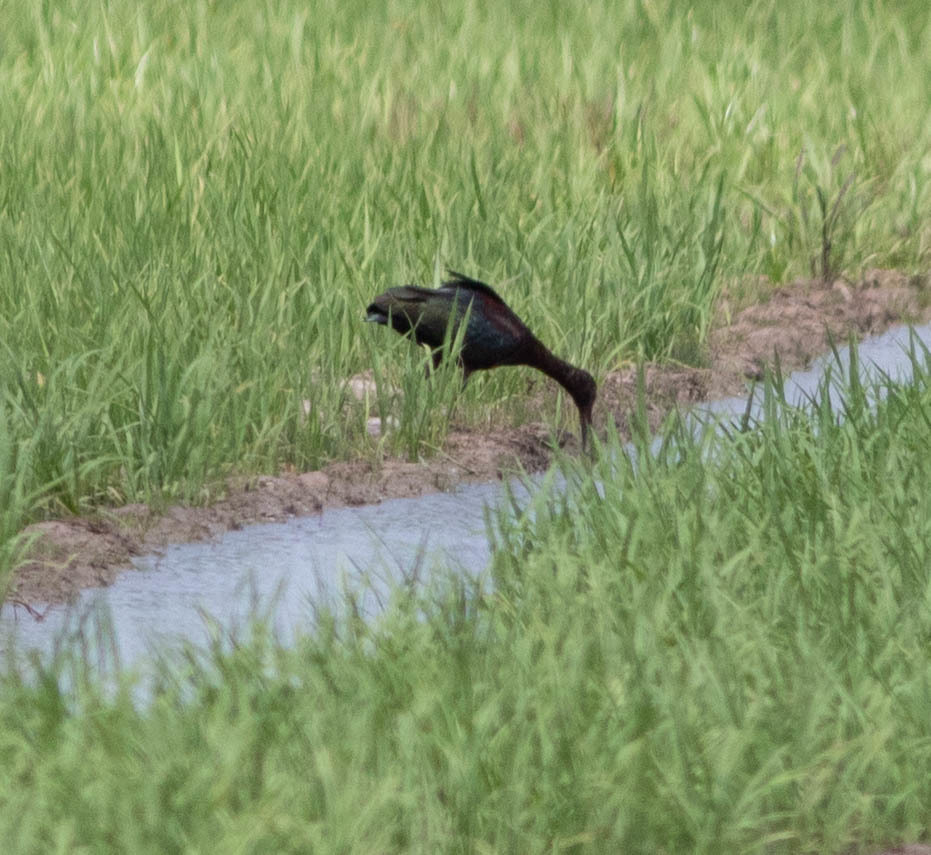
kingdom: Animalia
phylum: Chordata
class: Aves
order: Pelecaniformes
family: Threskiornithidae
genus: Plegadis
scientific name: Plegadis
